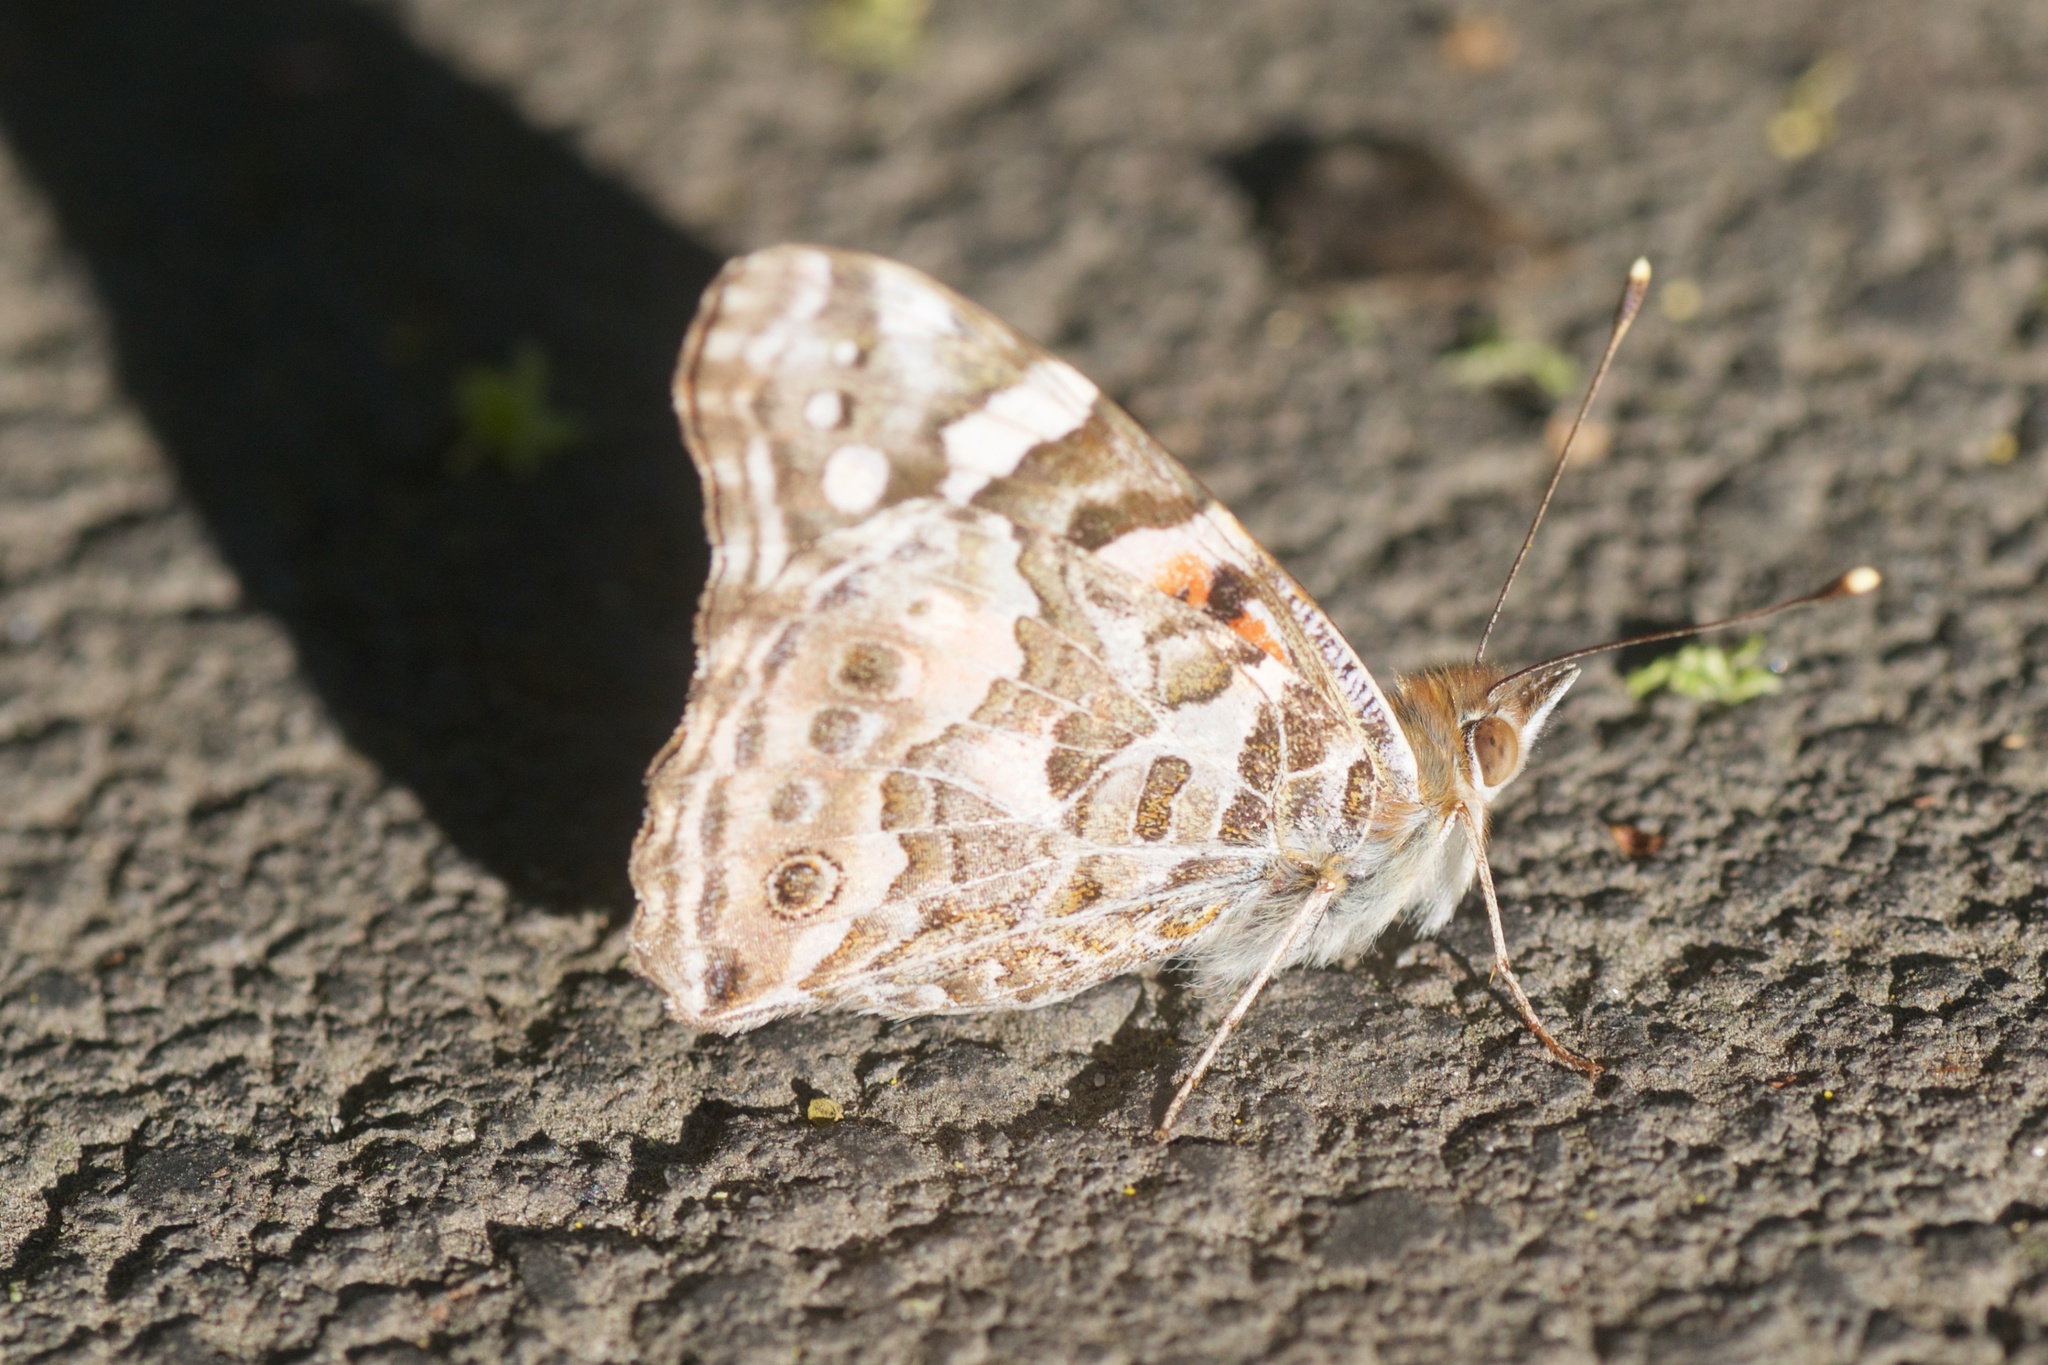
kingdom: Animalia
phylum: Arthropoda
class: Insecta
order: Lepidoptera
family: Nymphalidae
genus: Vanessa
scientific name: Vanessa kershawi
